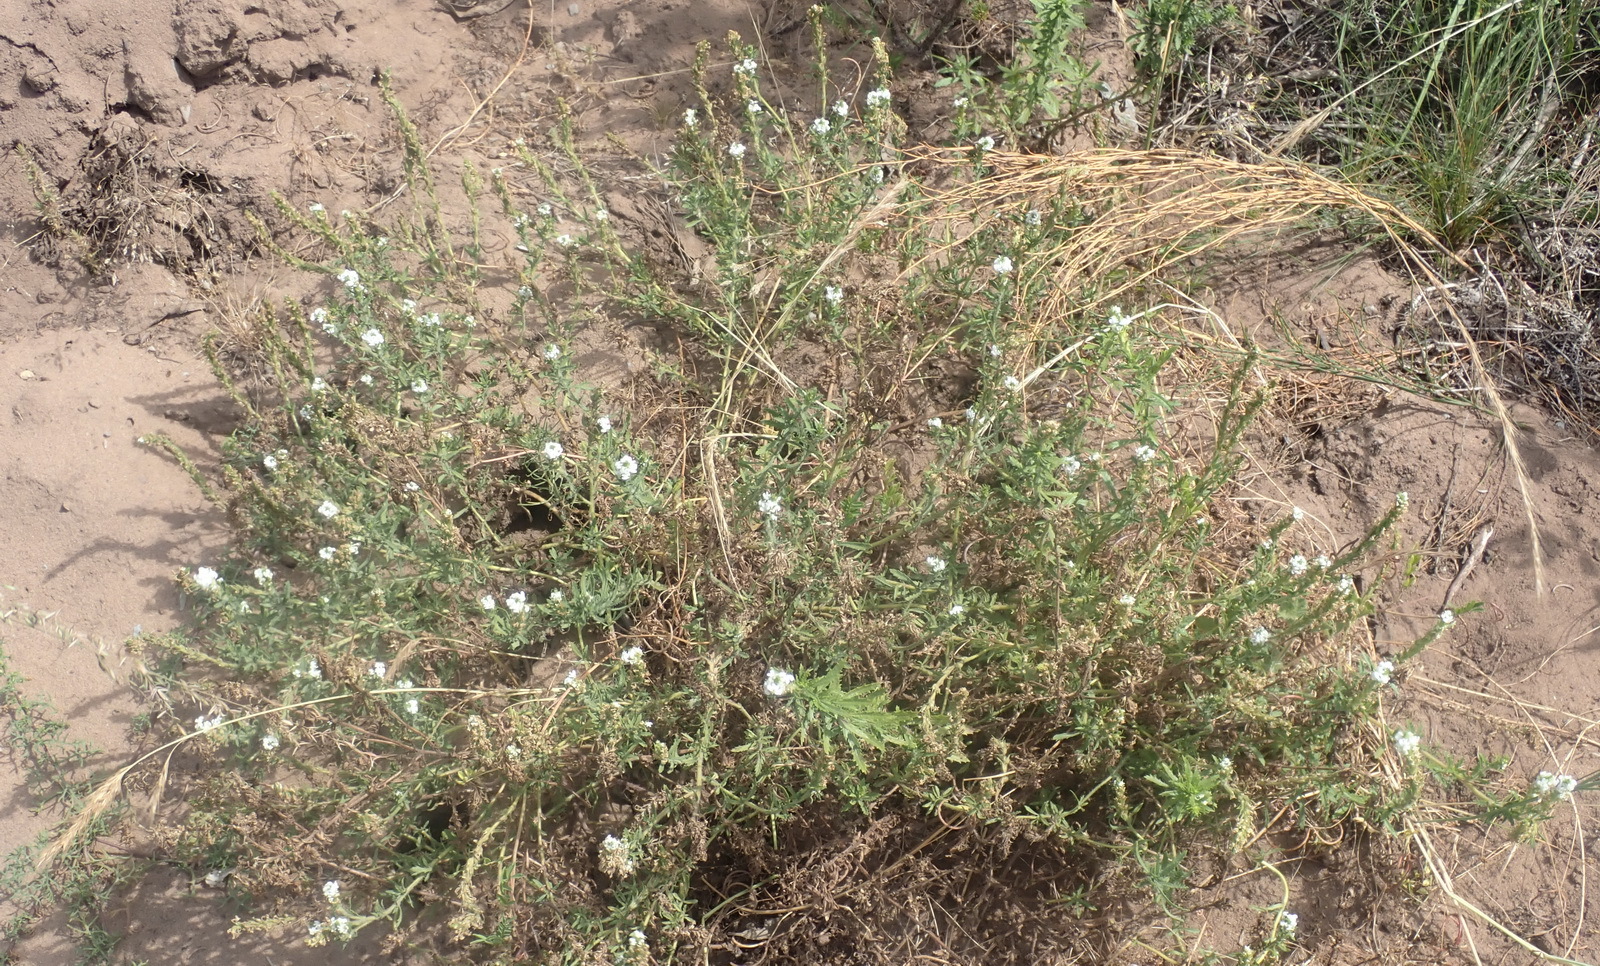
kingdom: Plantae
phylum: Tracheophyta
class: Magnoliopsida
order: Lamiales
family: Scrophulariaceae
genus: Dischisma
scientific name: Dischisma ciliatum
